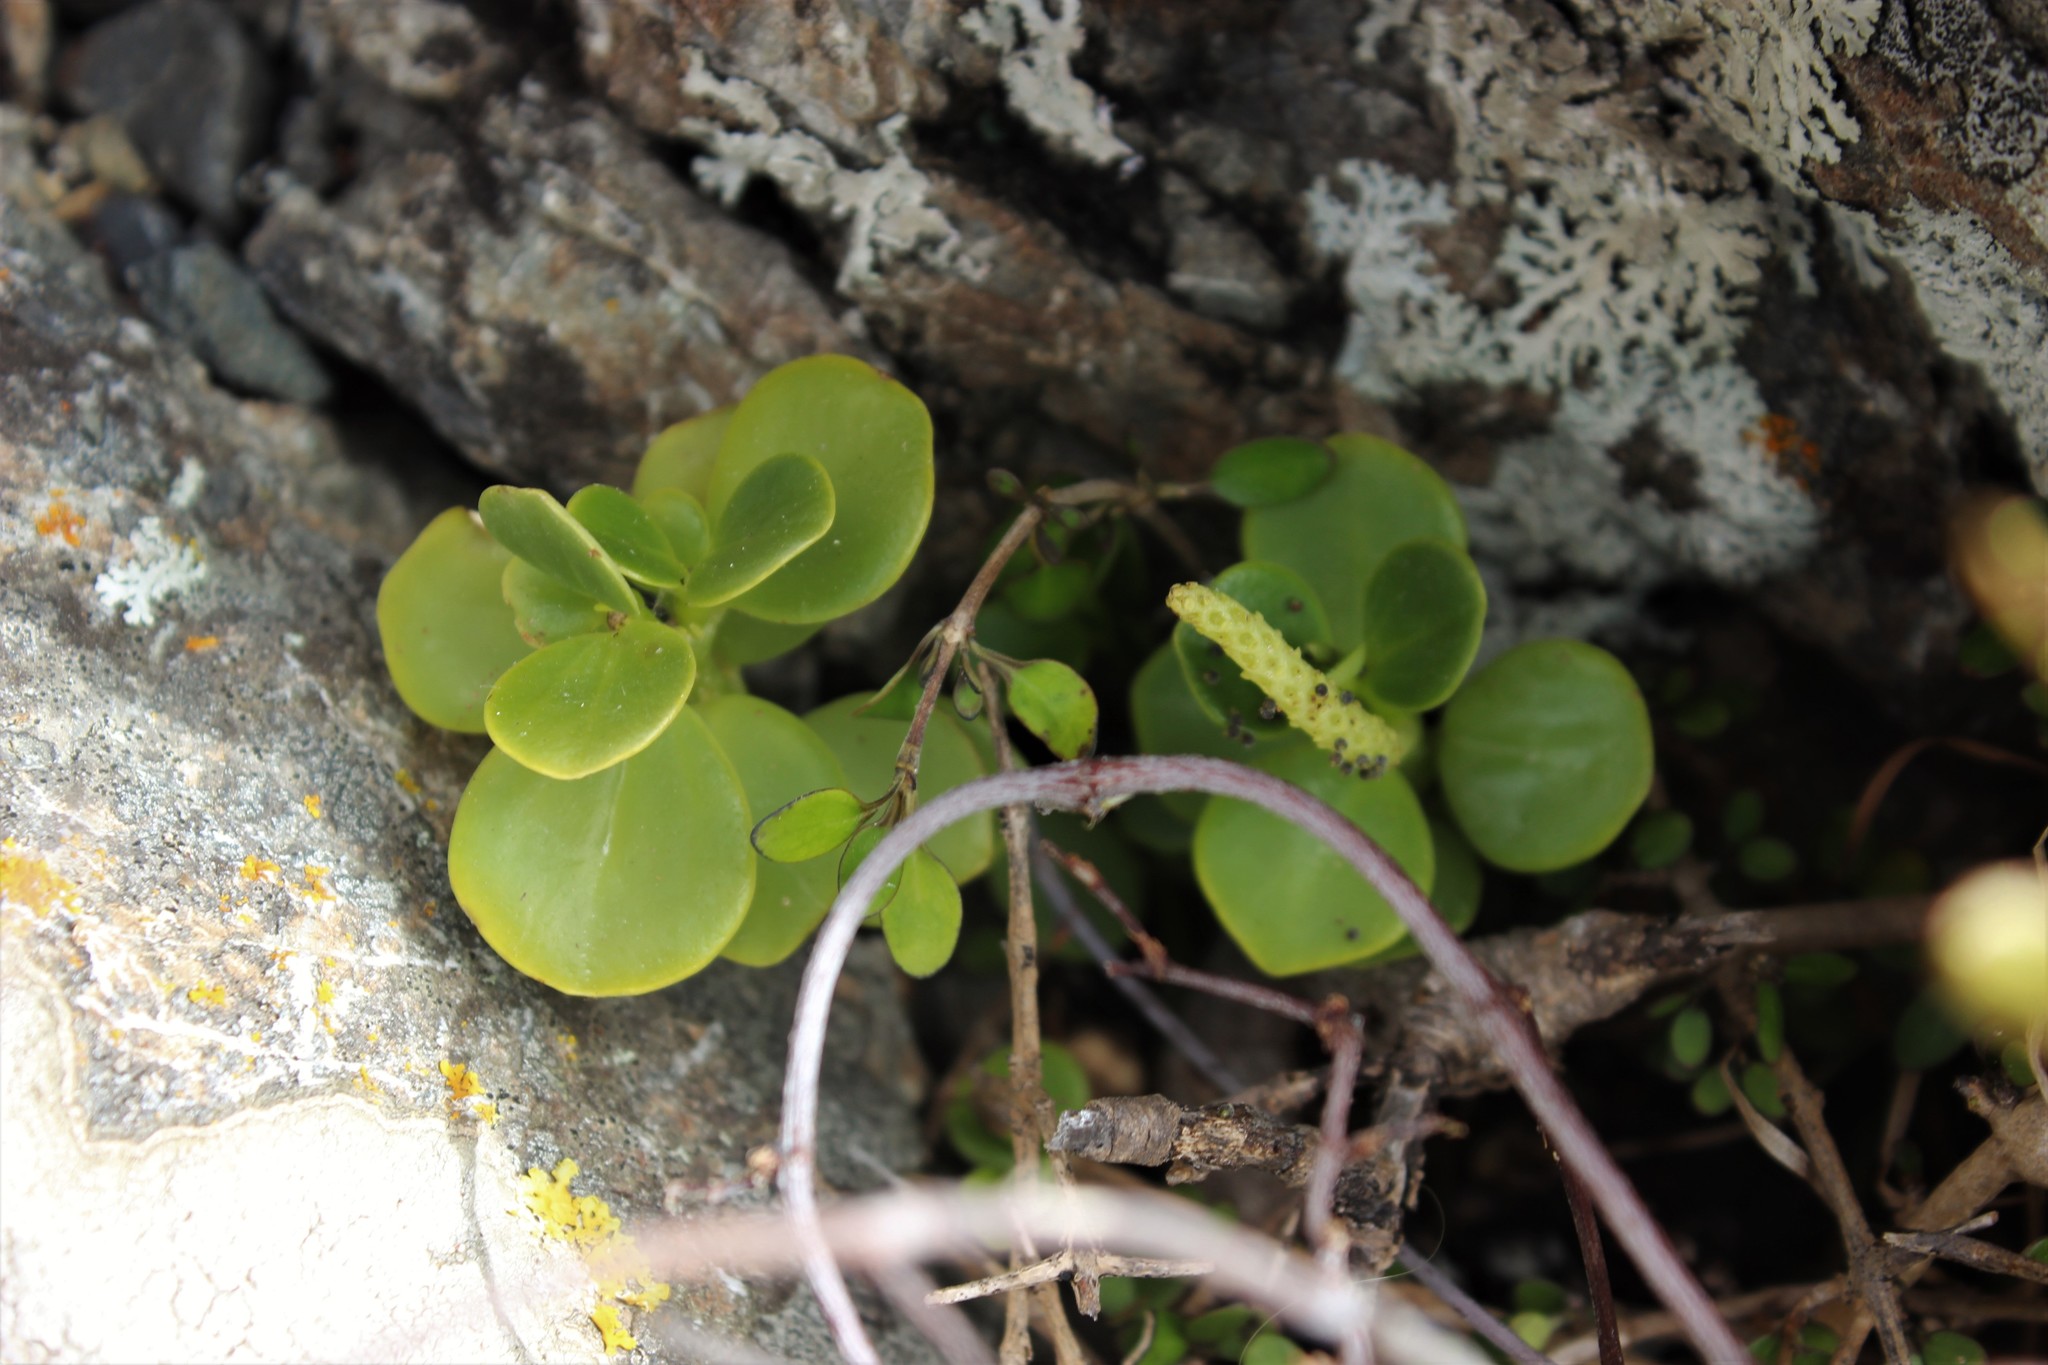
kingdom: Plantae
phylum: Tracheophyta
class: Magnoliopsida
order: Piperales
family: Piperaceae
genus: Peperomia
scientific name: Peperomia urvilleana
